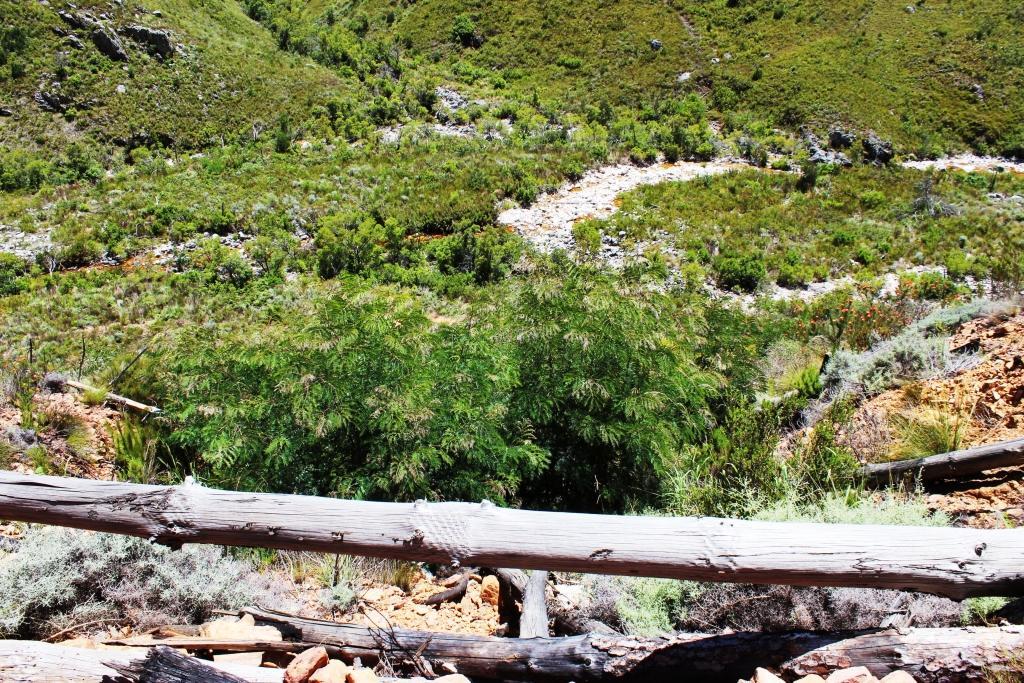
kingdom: Plantae
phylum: Tracheophyta
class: Magnoliopsida
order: Fabales
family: Fabaceae
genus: Acacia
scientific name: Acacia elata
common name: Cedar wattle
